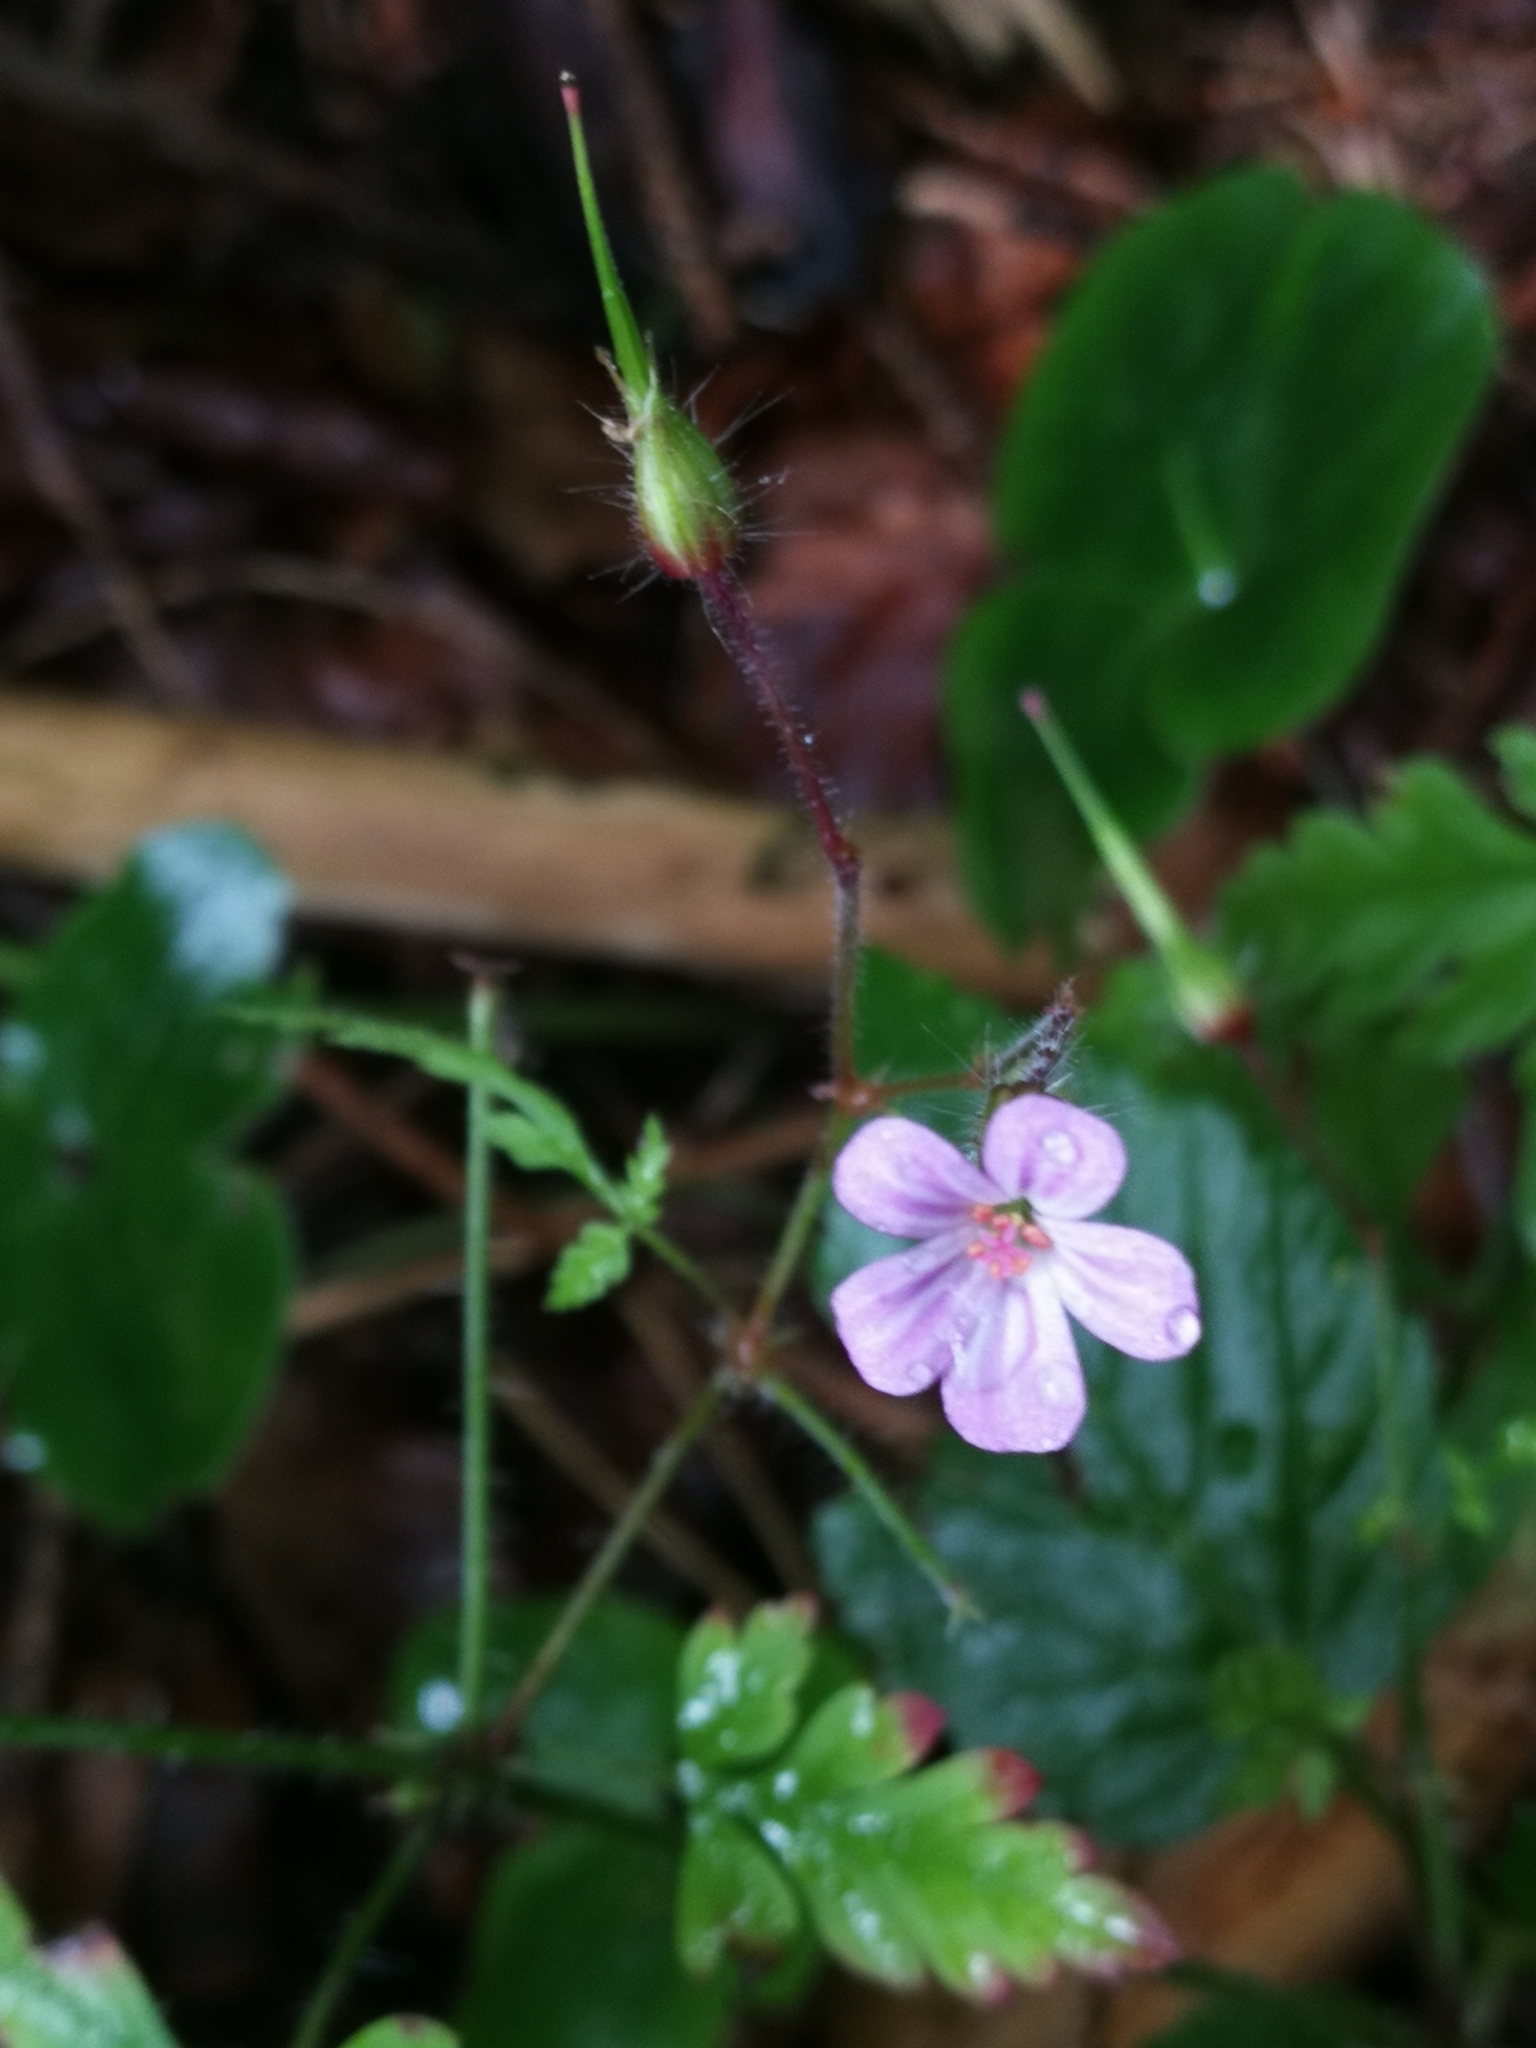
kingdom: Plantae
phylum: Tracheophyta
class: Magnoliopsida
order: Geraniales
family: Geraniaceae
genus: Geranium
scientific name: Geranium robertianum
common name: Herb-robert
